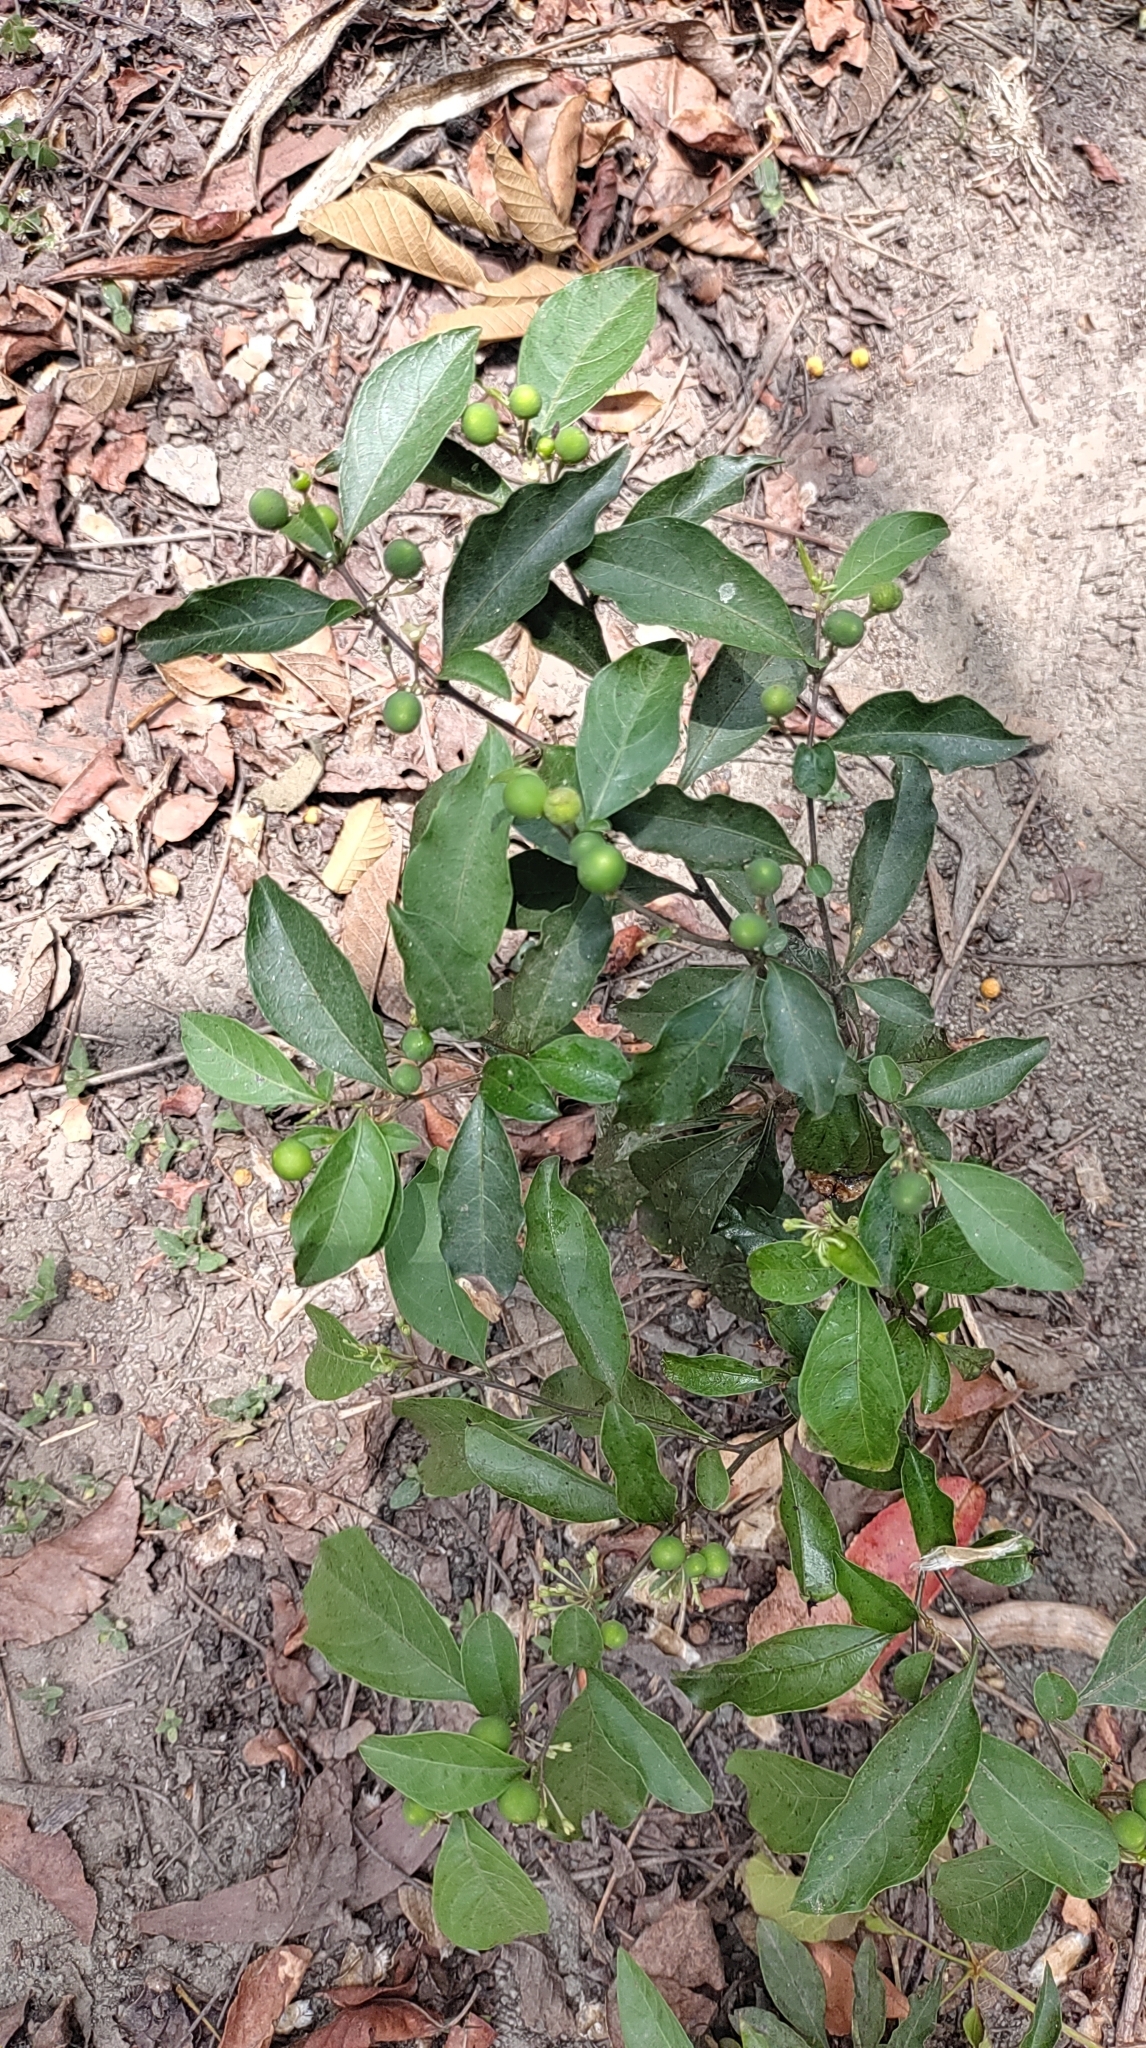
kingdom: Plantae
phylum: Tracheophyta
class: Magnoliopsida
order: Solanales
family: Solanaceae
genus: Solanum
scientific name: Solanum diphyllum
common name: Twoleaf nightshade
